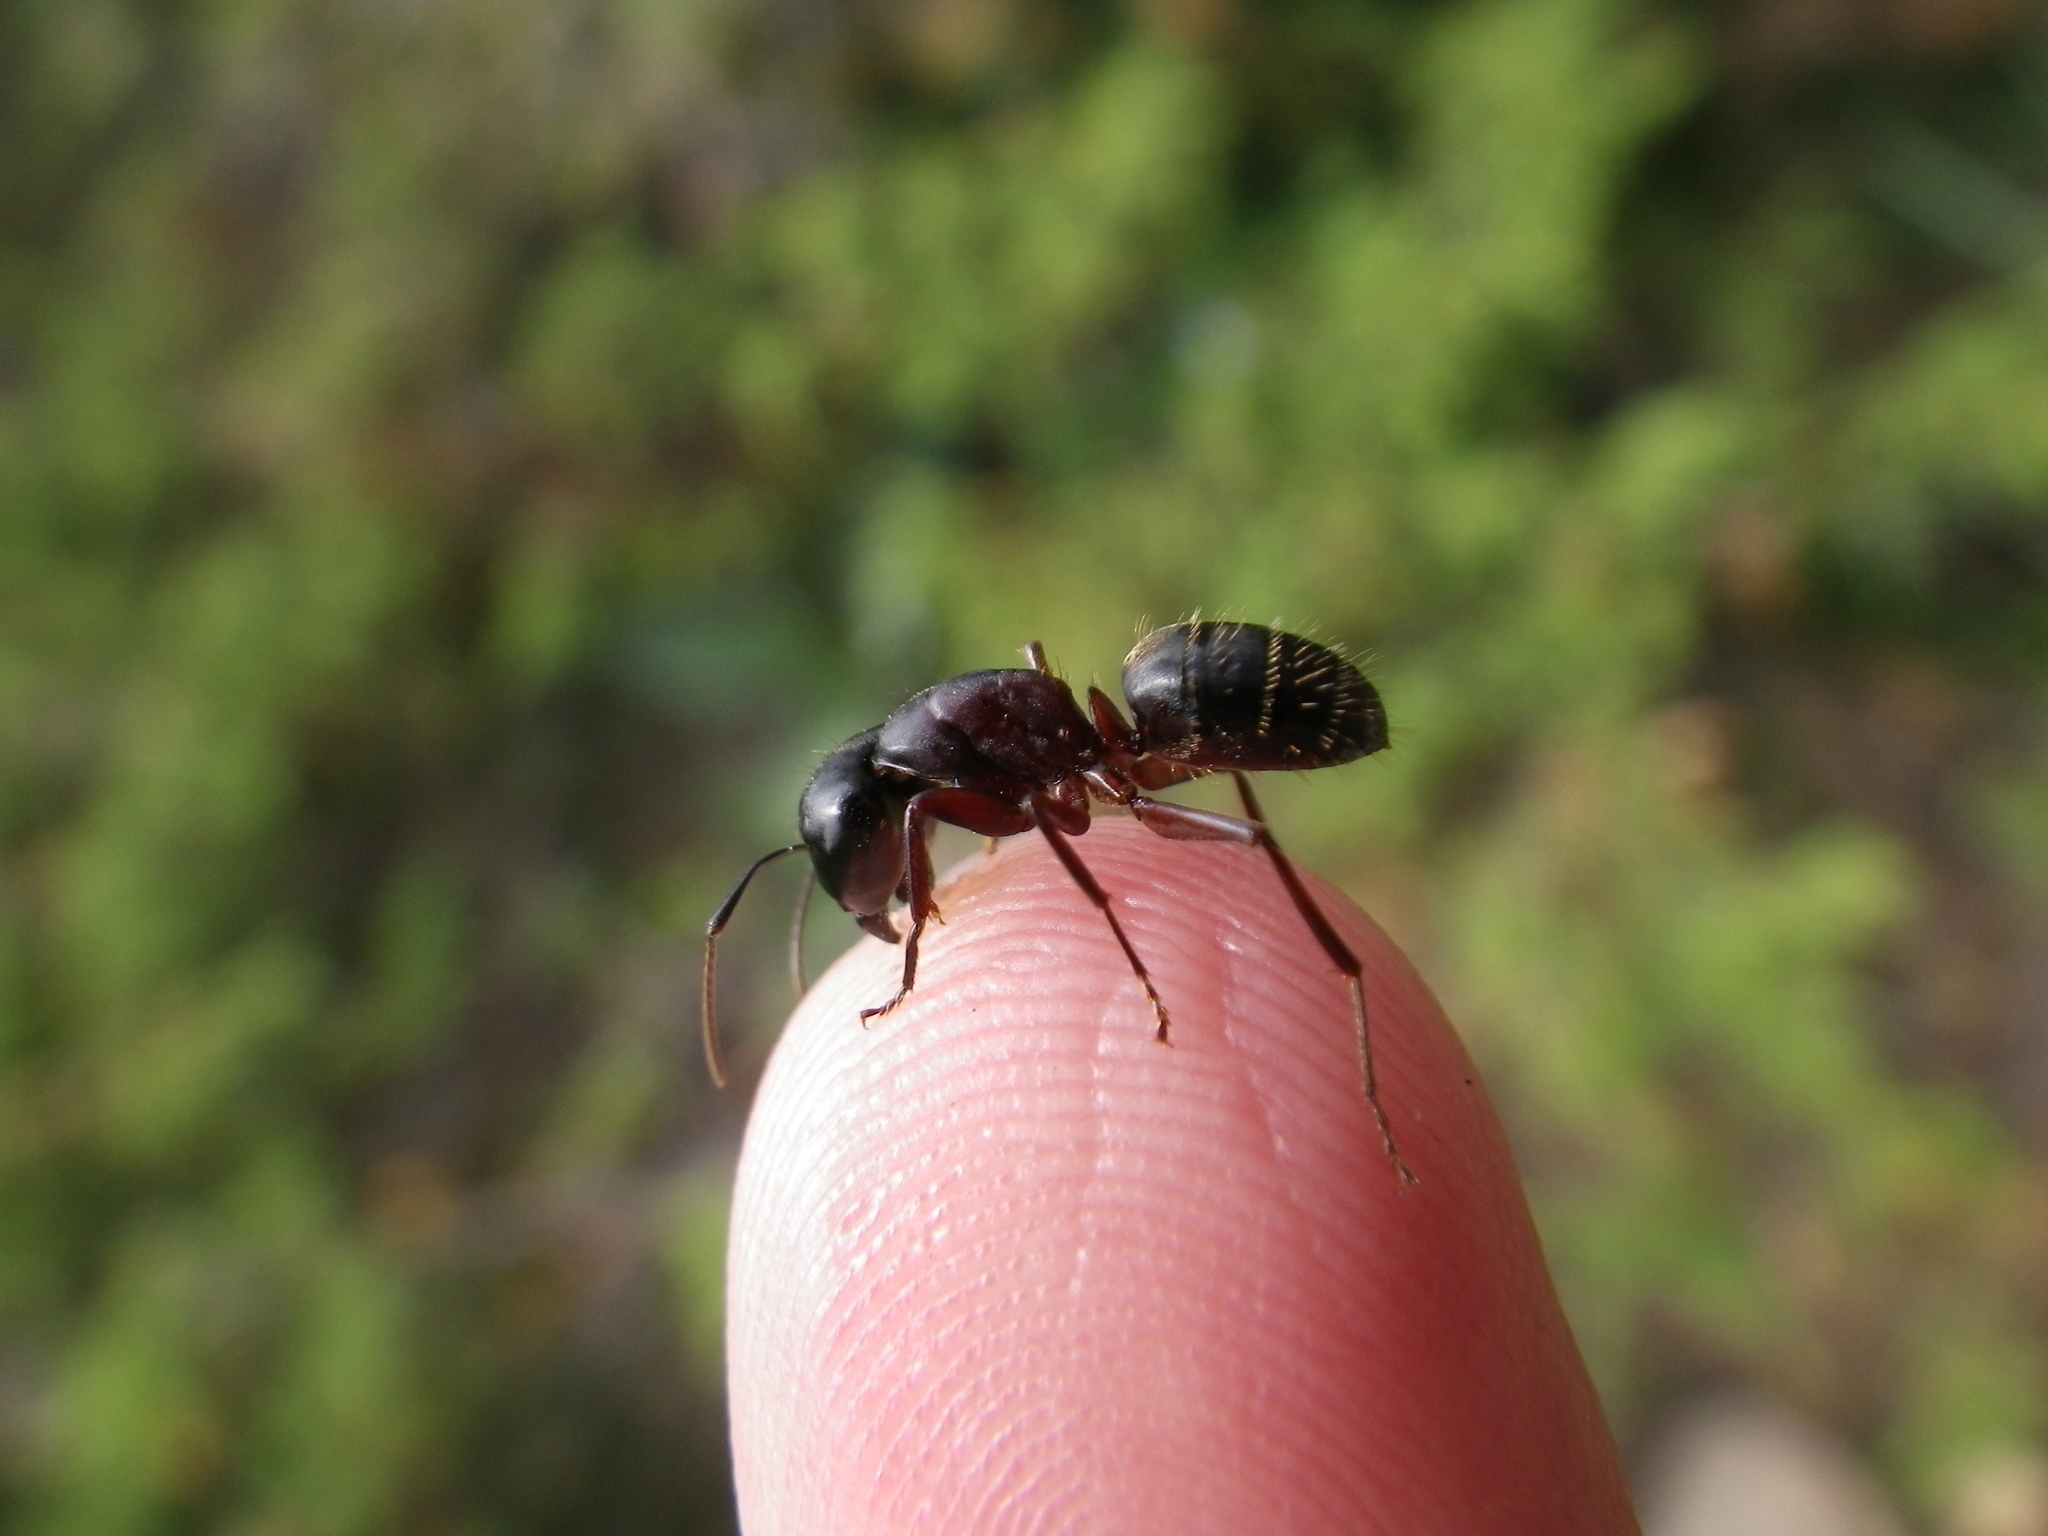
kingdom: Animalia
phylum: Arthropoda
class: Insecta
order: Hymenoptera
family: Formicidae
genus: Camponotus
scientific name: Camponotus herculeanus
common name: Hercules ant
